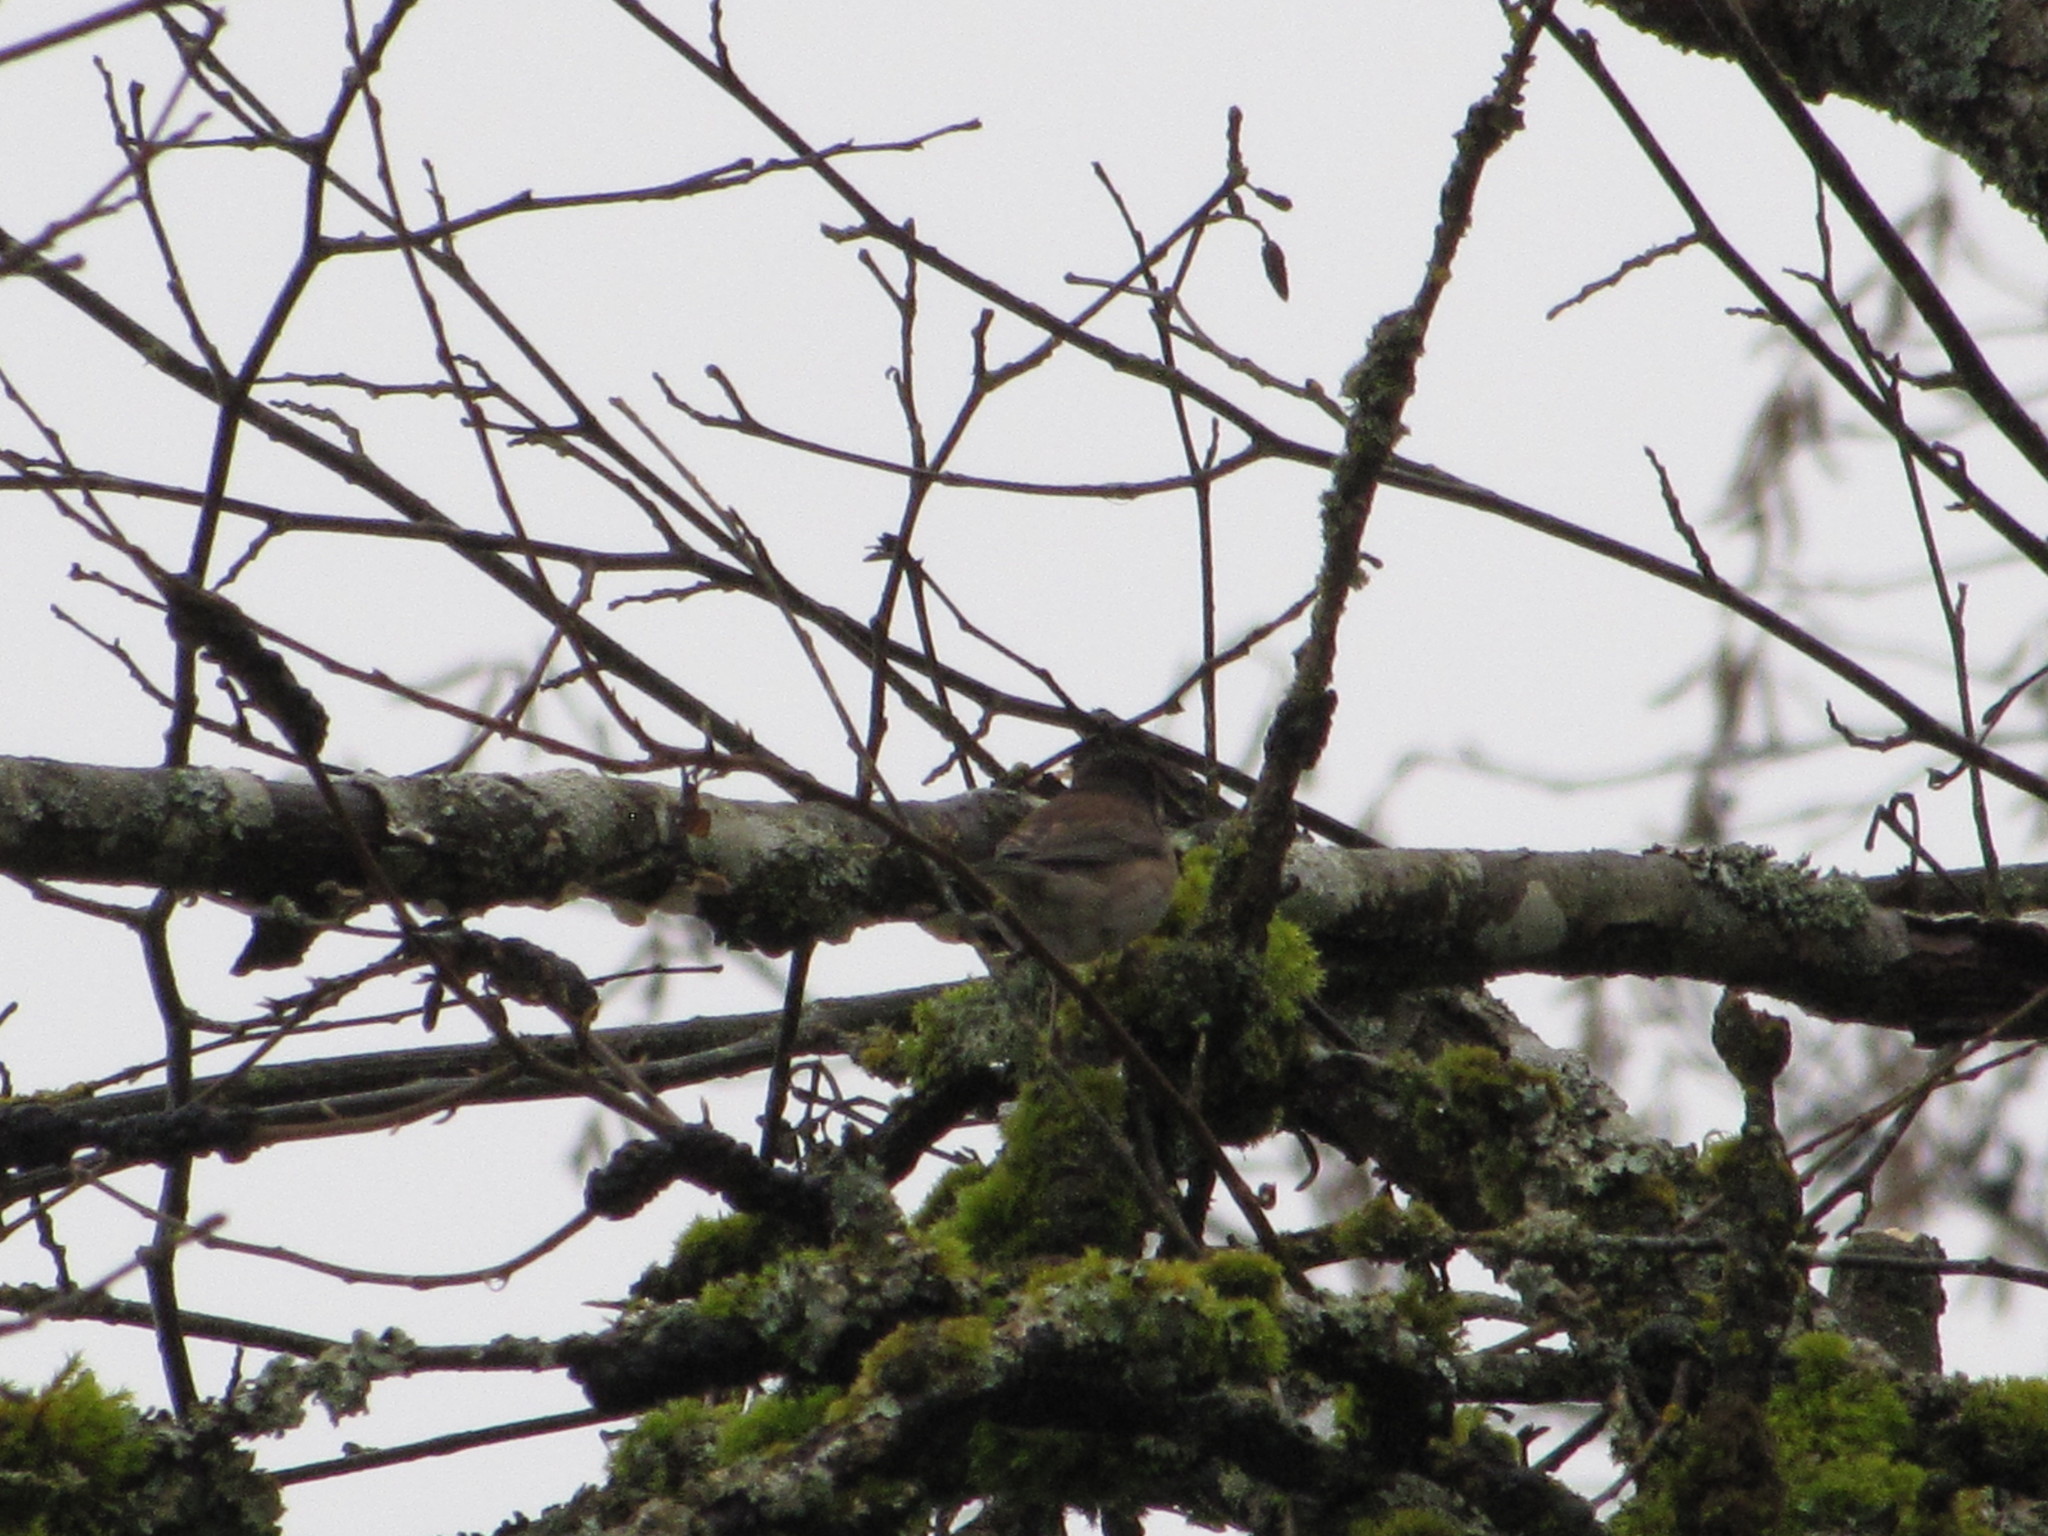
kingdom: Animalia
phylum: Chordata
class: Aves
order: Passeriformes
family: Passerellidae
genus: Junco
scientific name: Junco hyemalis
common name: Dark-eyed junco
